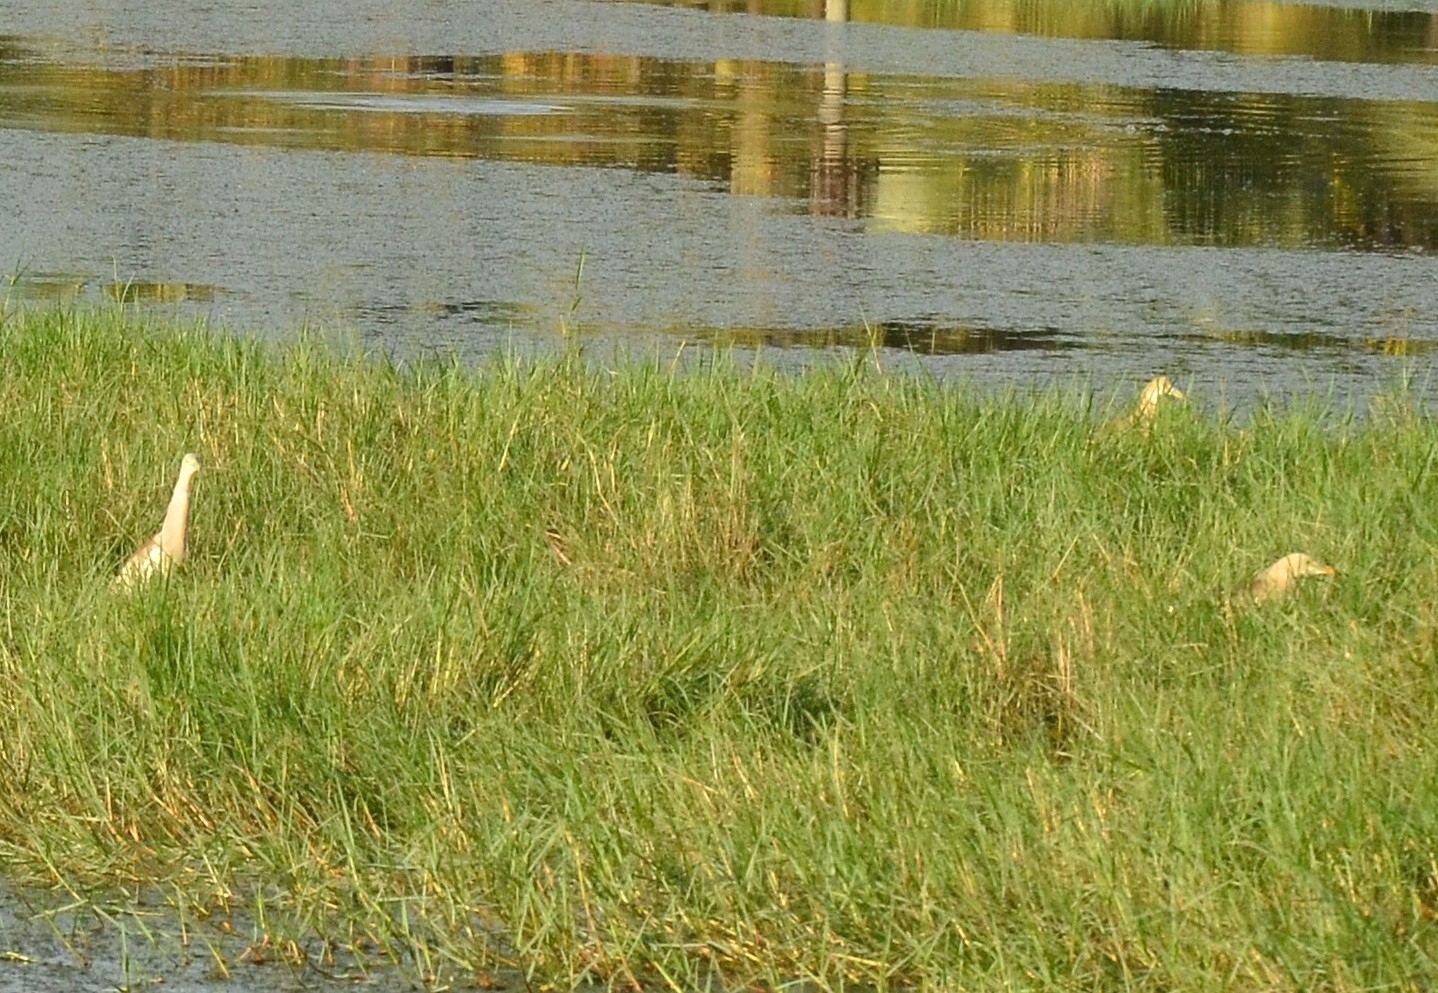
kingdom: Animalia
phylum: Chordata
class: Aves
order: Pelecaniformes
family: Ardeidae
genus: Ardeola
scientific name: Ardeola grayii
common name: Indian pond heron
